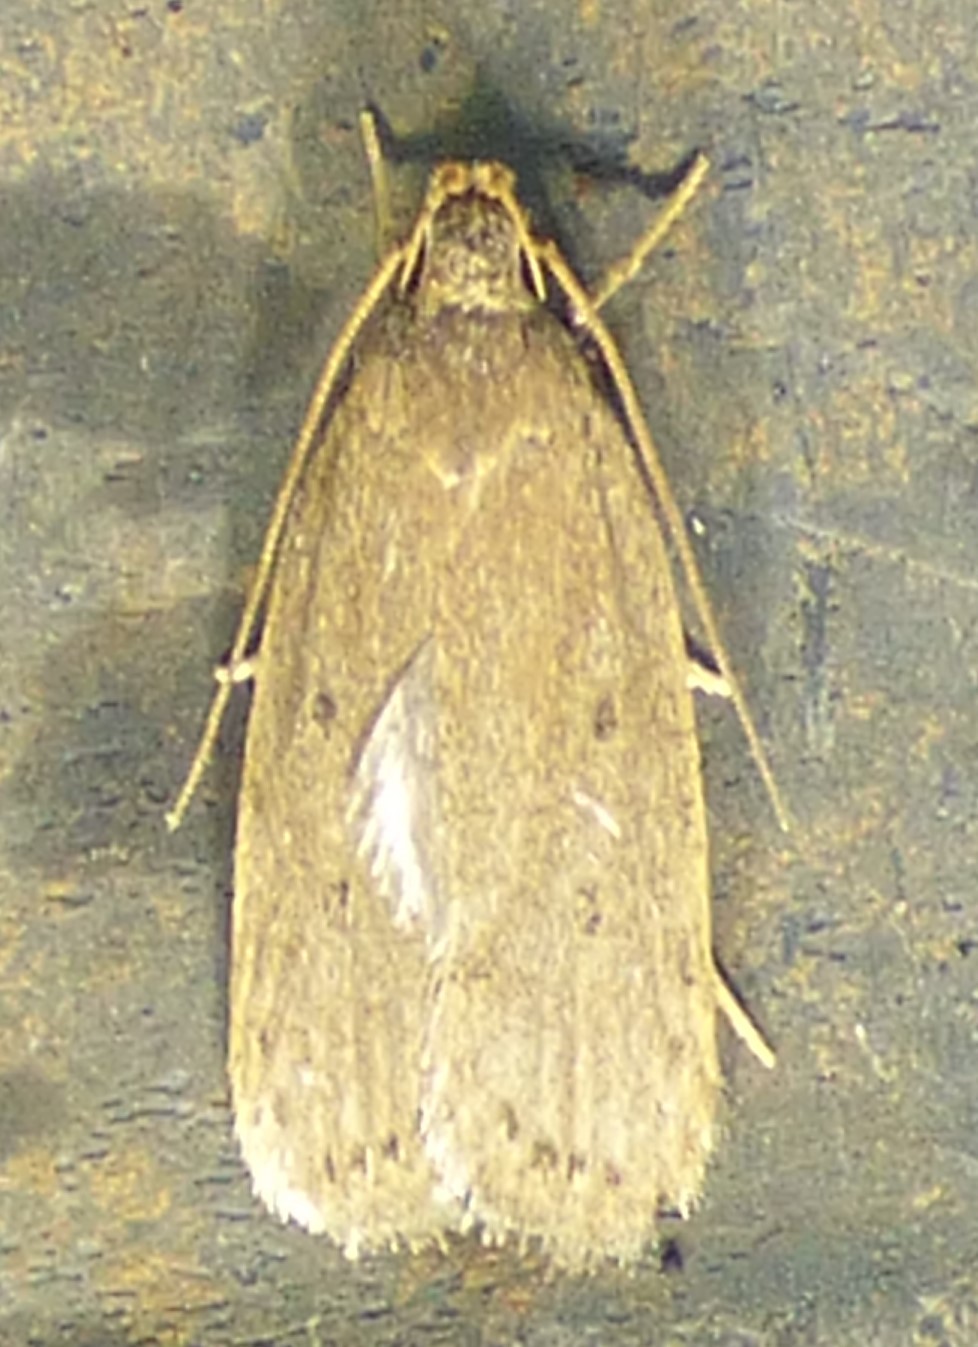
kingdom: Animalia
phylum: Arthropoda
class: Insecta
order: Lepidoptera
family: Autostichidae
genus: Autosticha
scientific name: Autosticha kyotensis
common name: Kyoto moth
